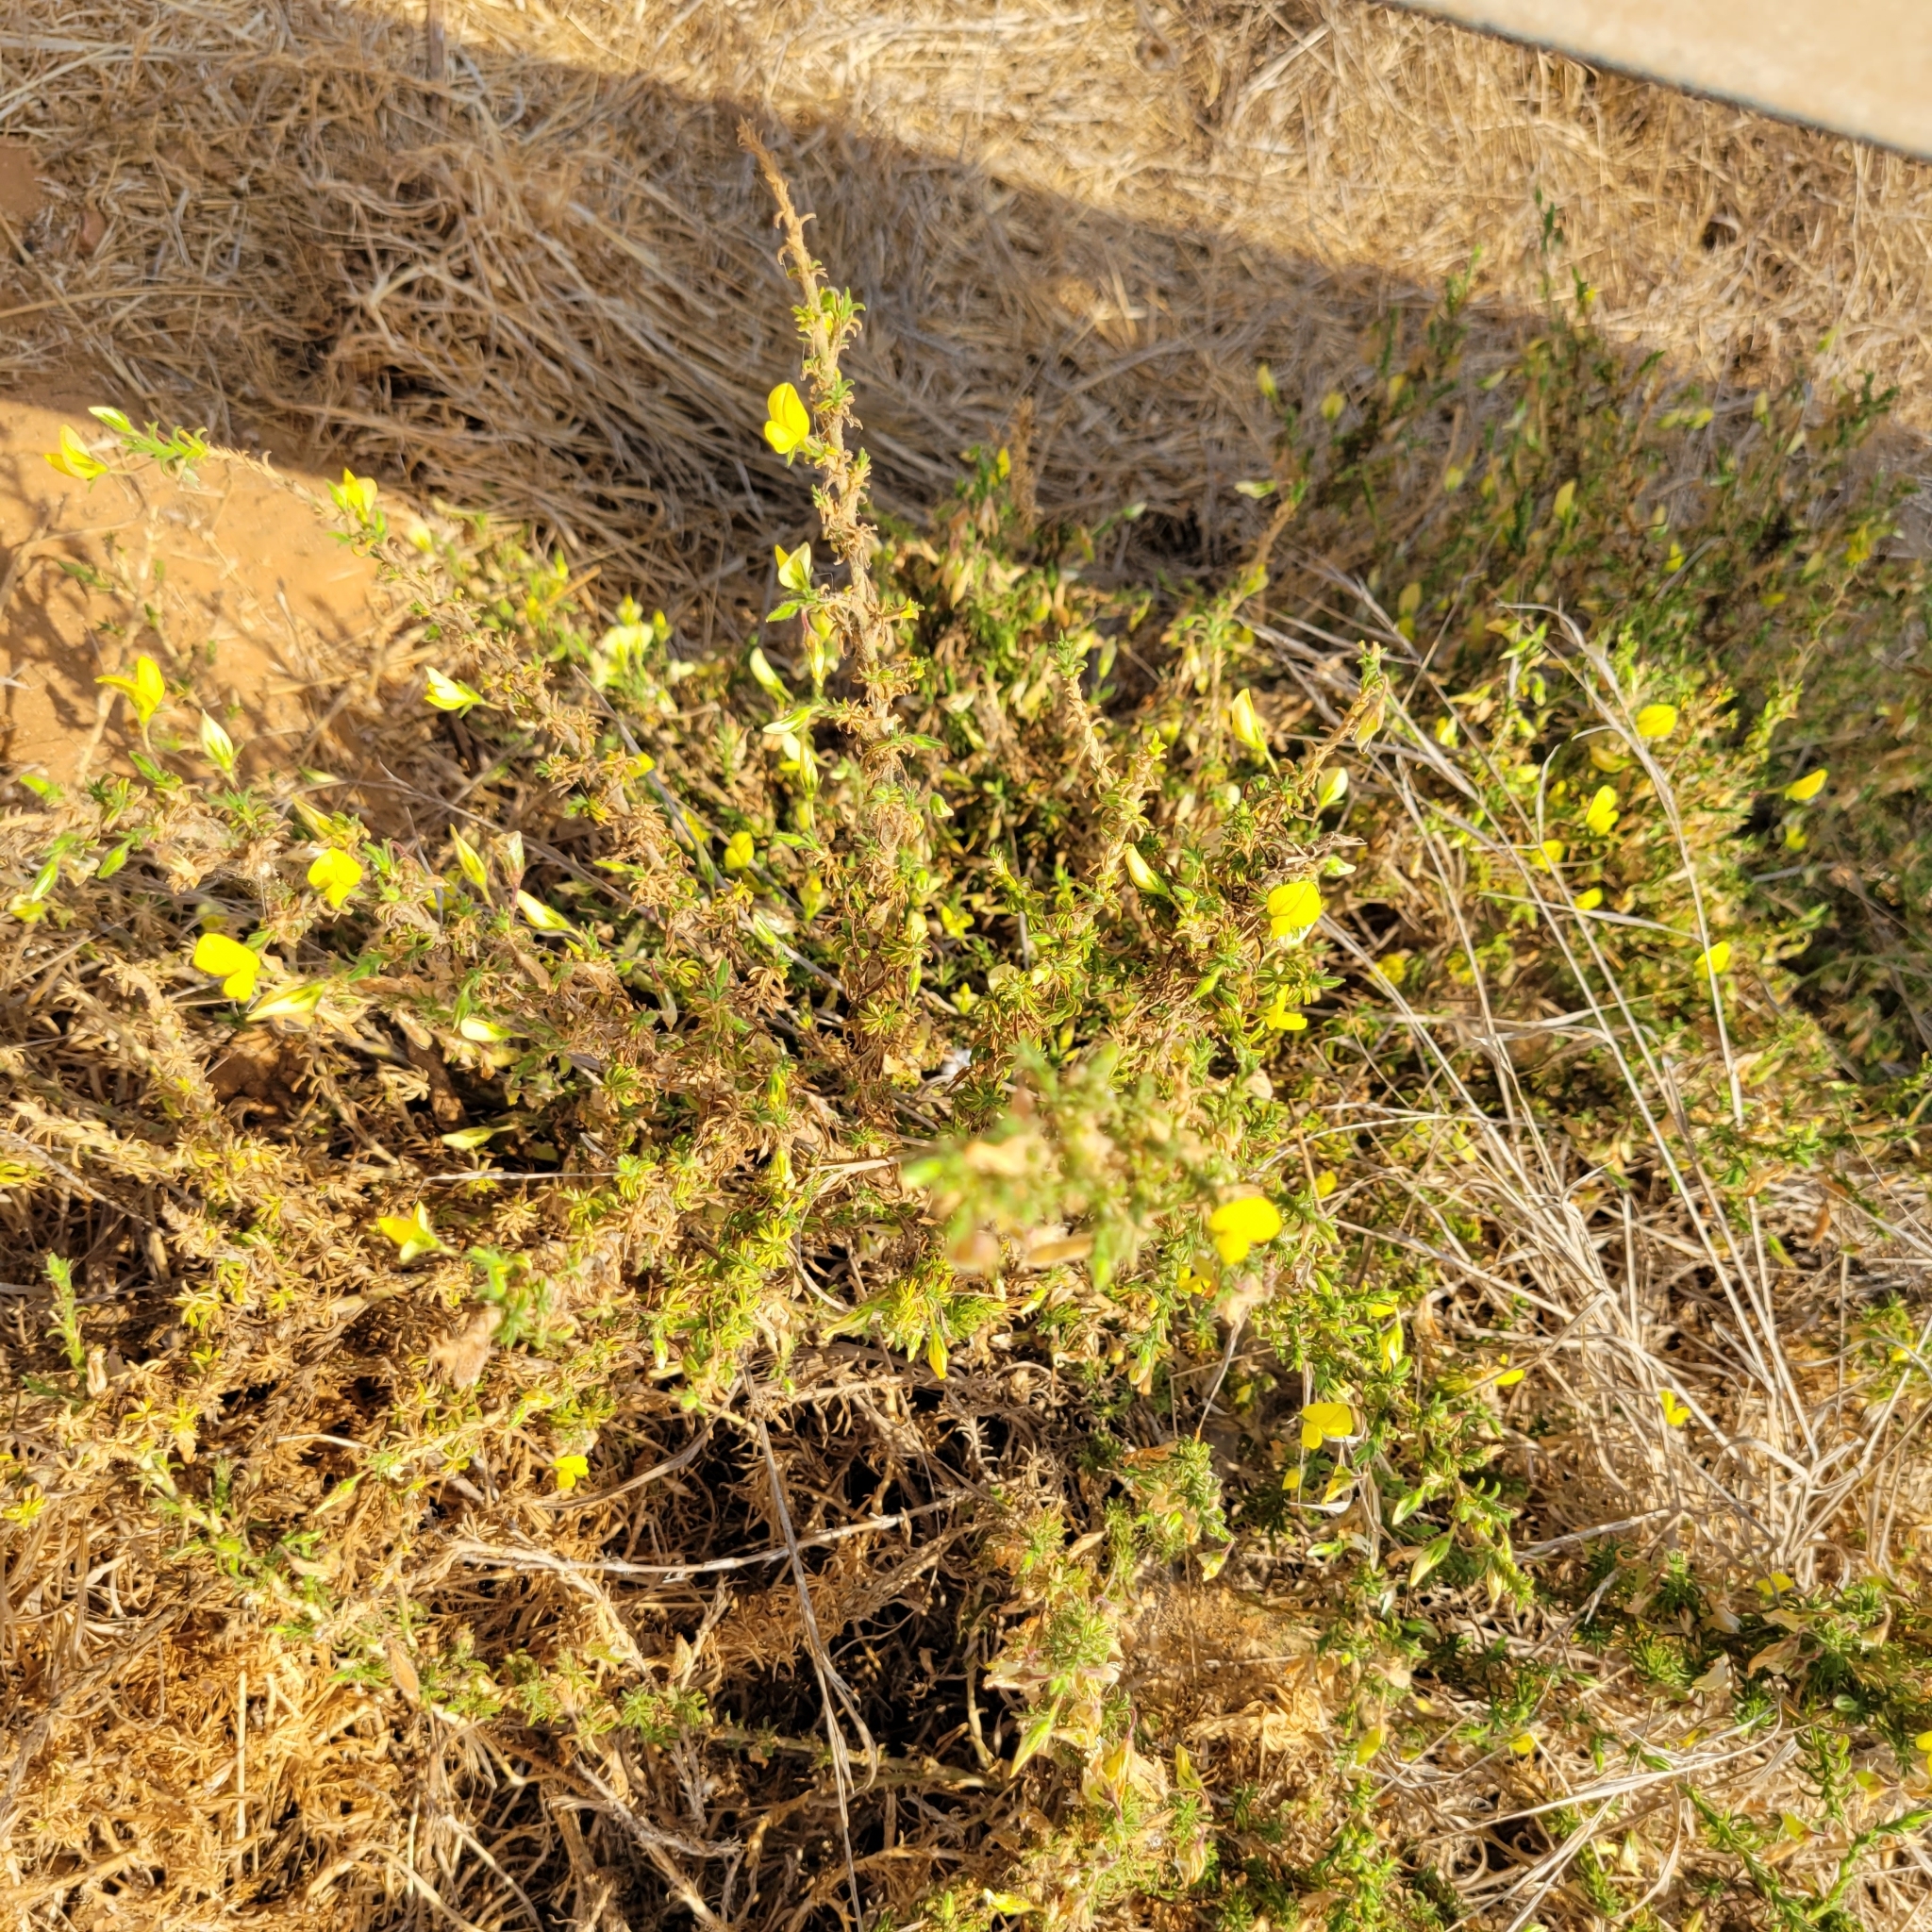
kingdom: Plantae
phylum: Tracheophyta
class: Magnoliopsida
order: Fabales
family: Fabaceae
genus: Ononis
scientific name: Ononis natrix
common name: Yellow restharrow
